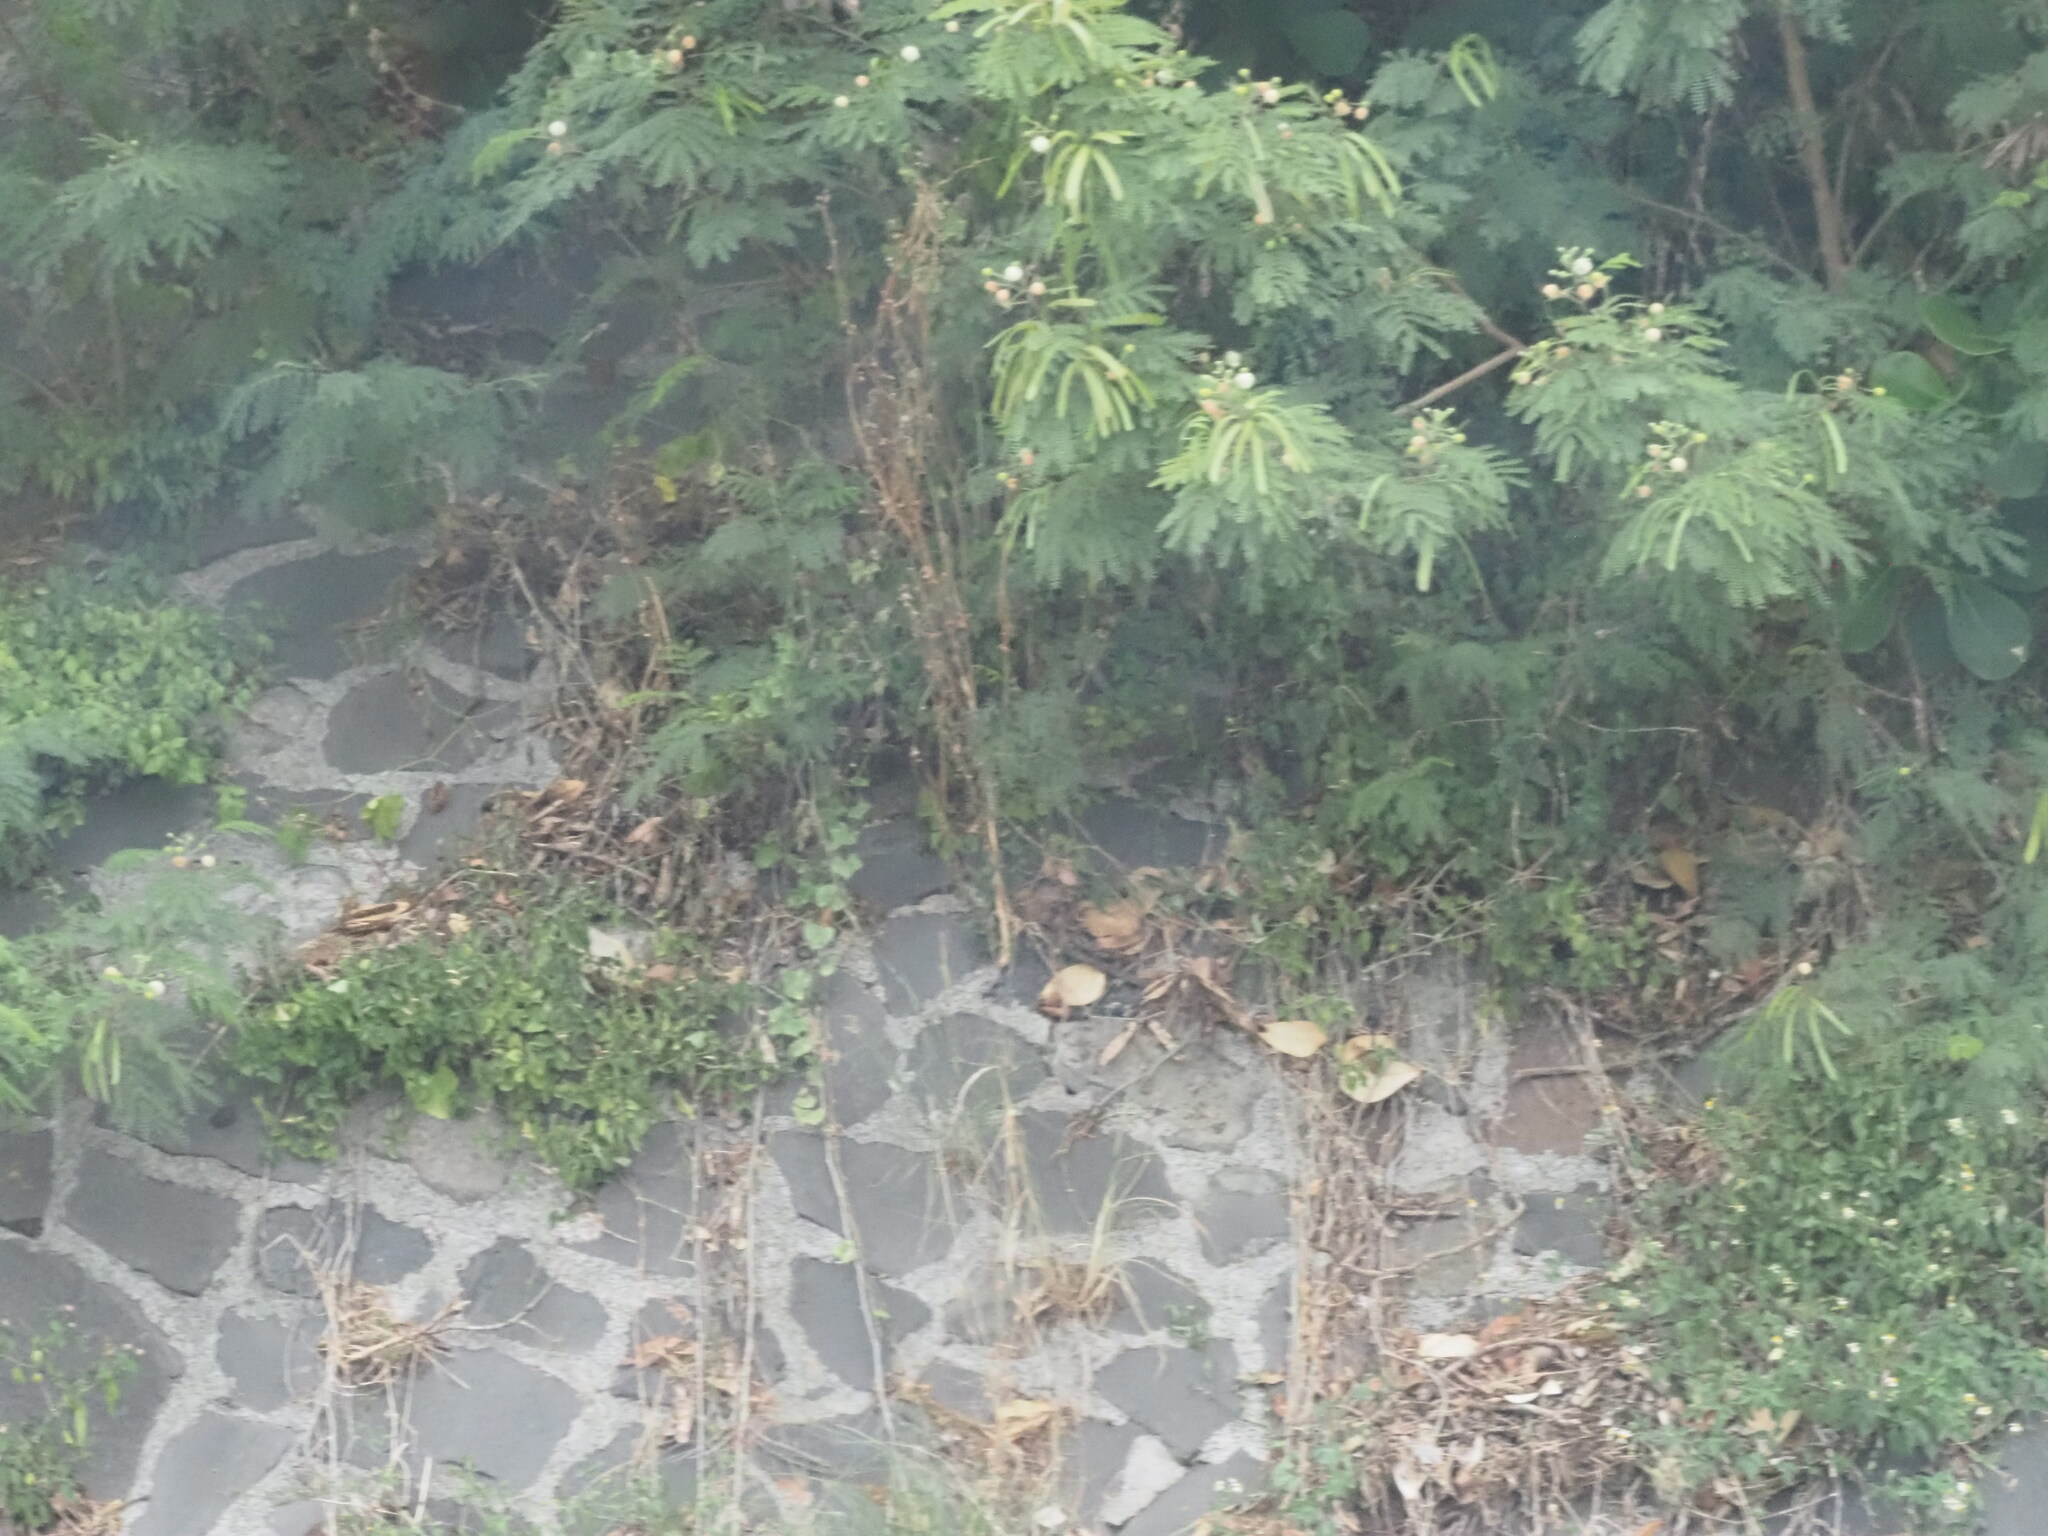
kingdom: Plantae
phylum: Tracheophyta
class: Magnoliopsida
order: Fabales
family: Fabaceae
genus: Leucaena
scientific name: Leucaena leucocephala
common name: White leadtree
